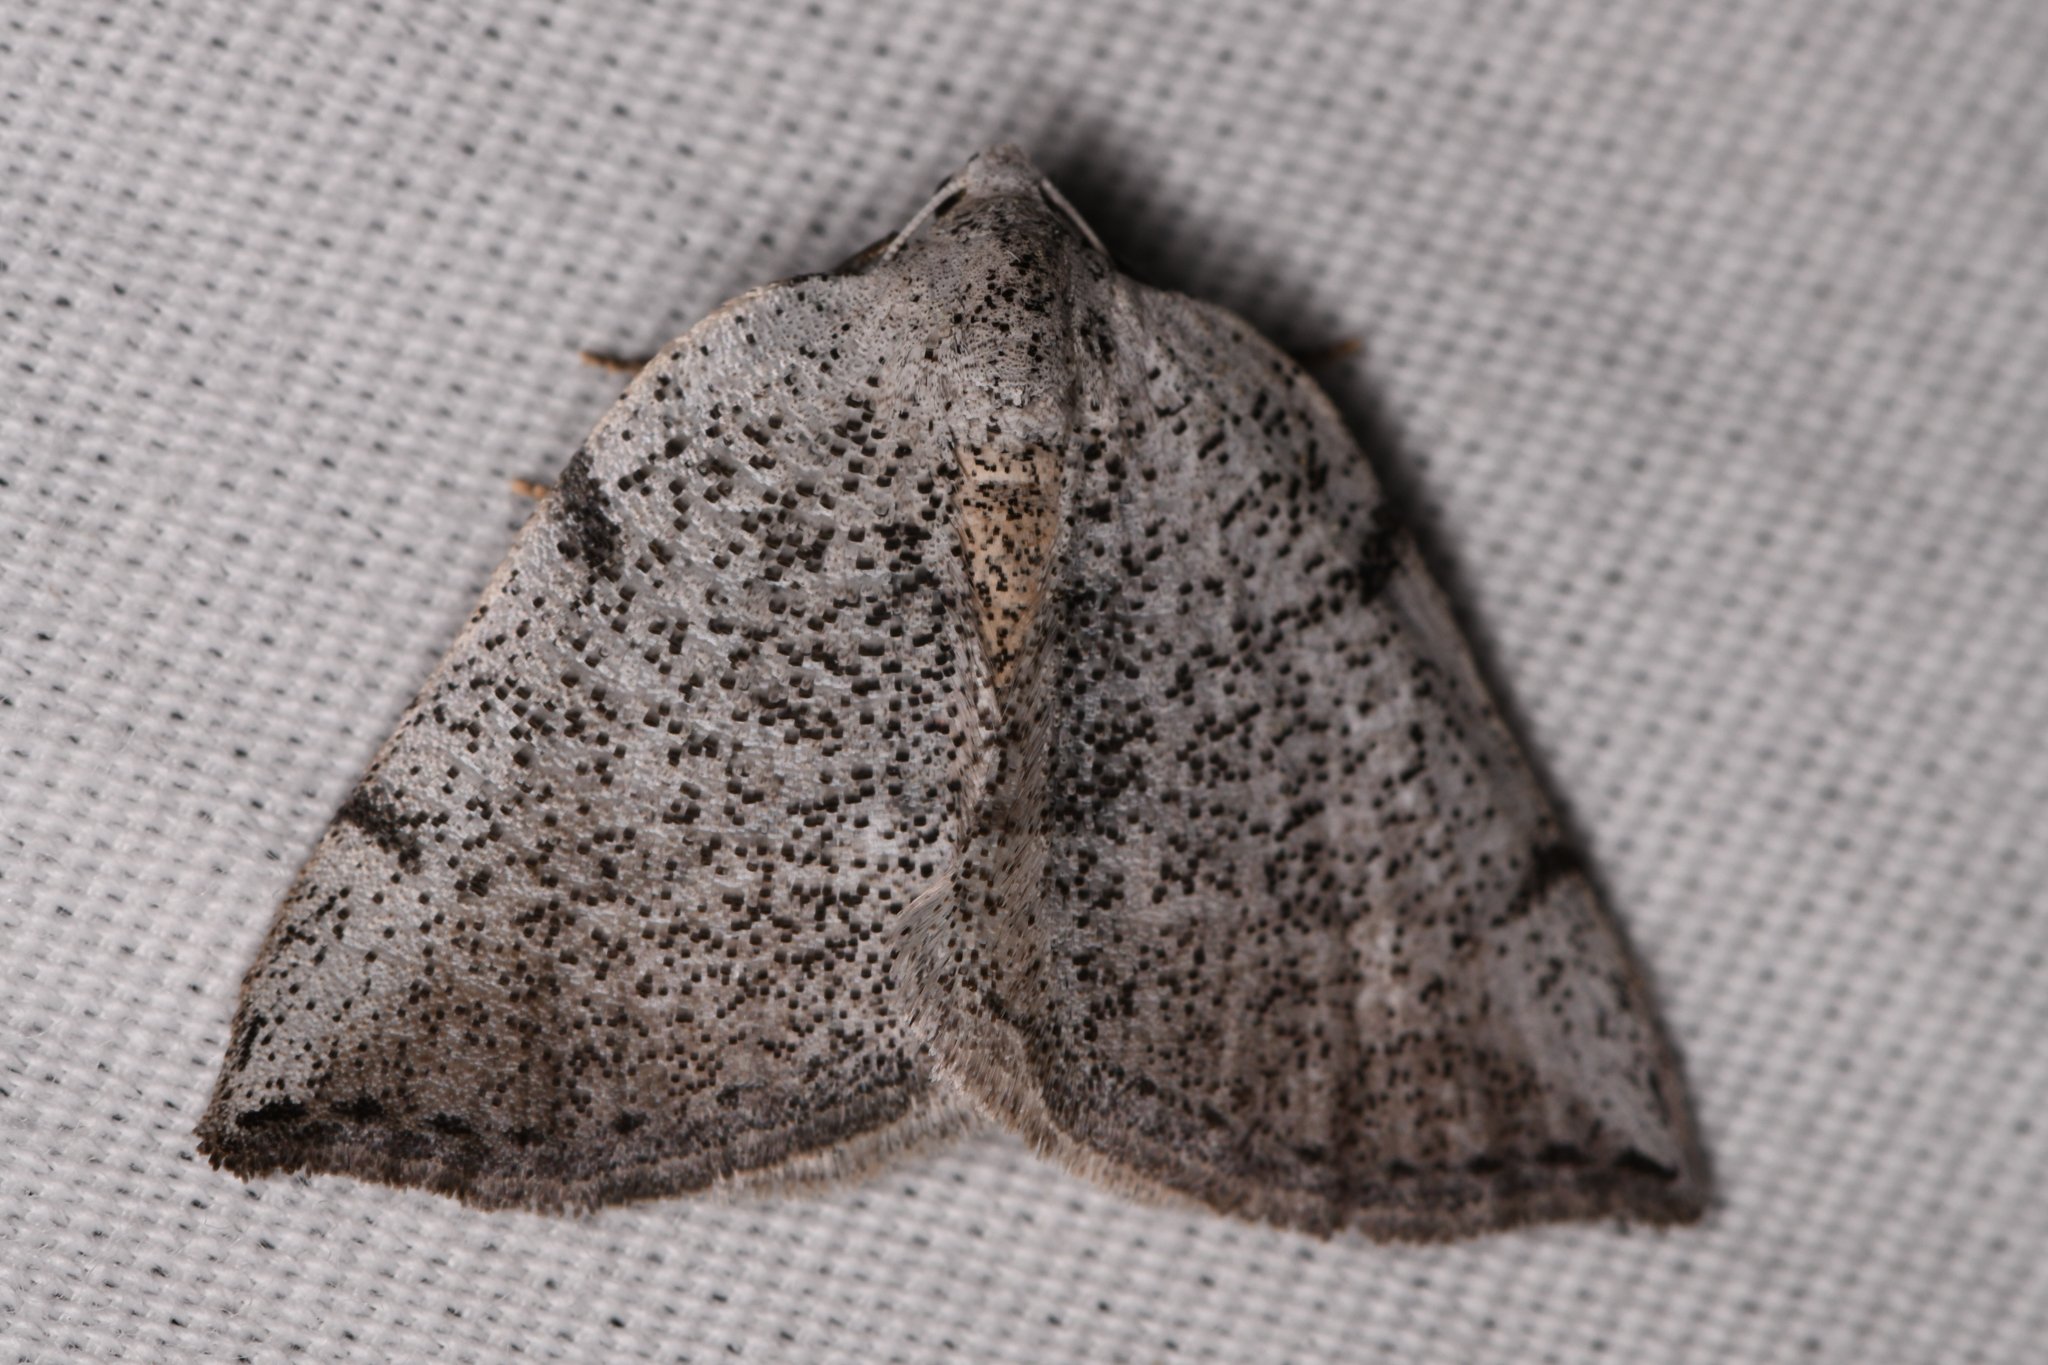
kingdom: Animalia
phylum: Arthropoda
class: Insecta
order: Lepidoptera
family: Geometridae
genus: Lomographa
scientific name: Lomographa elsinora
